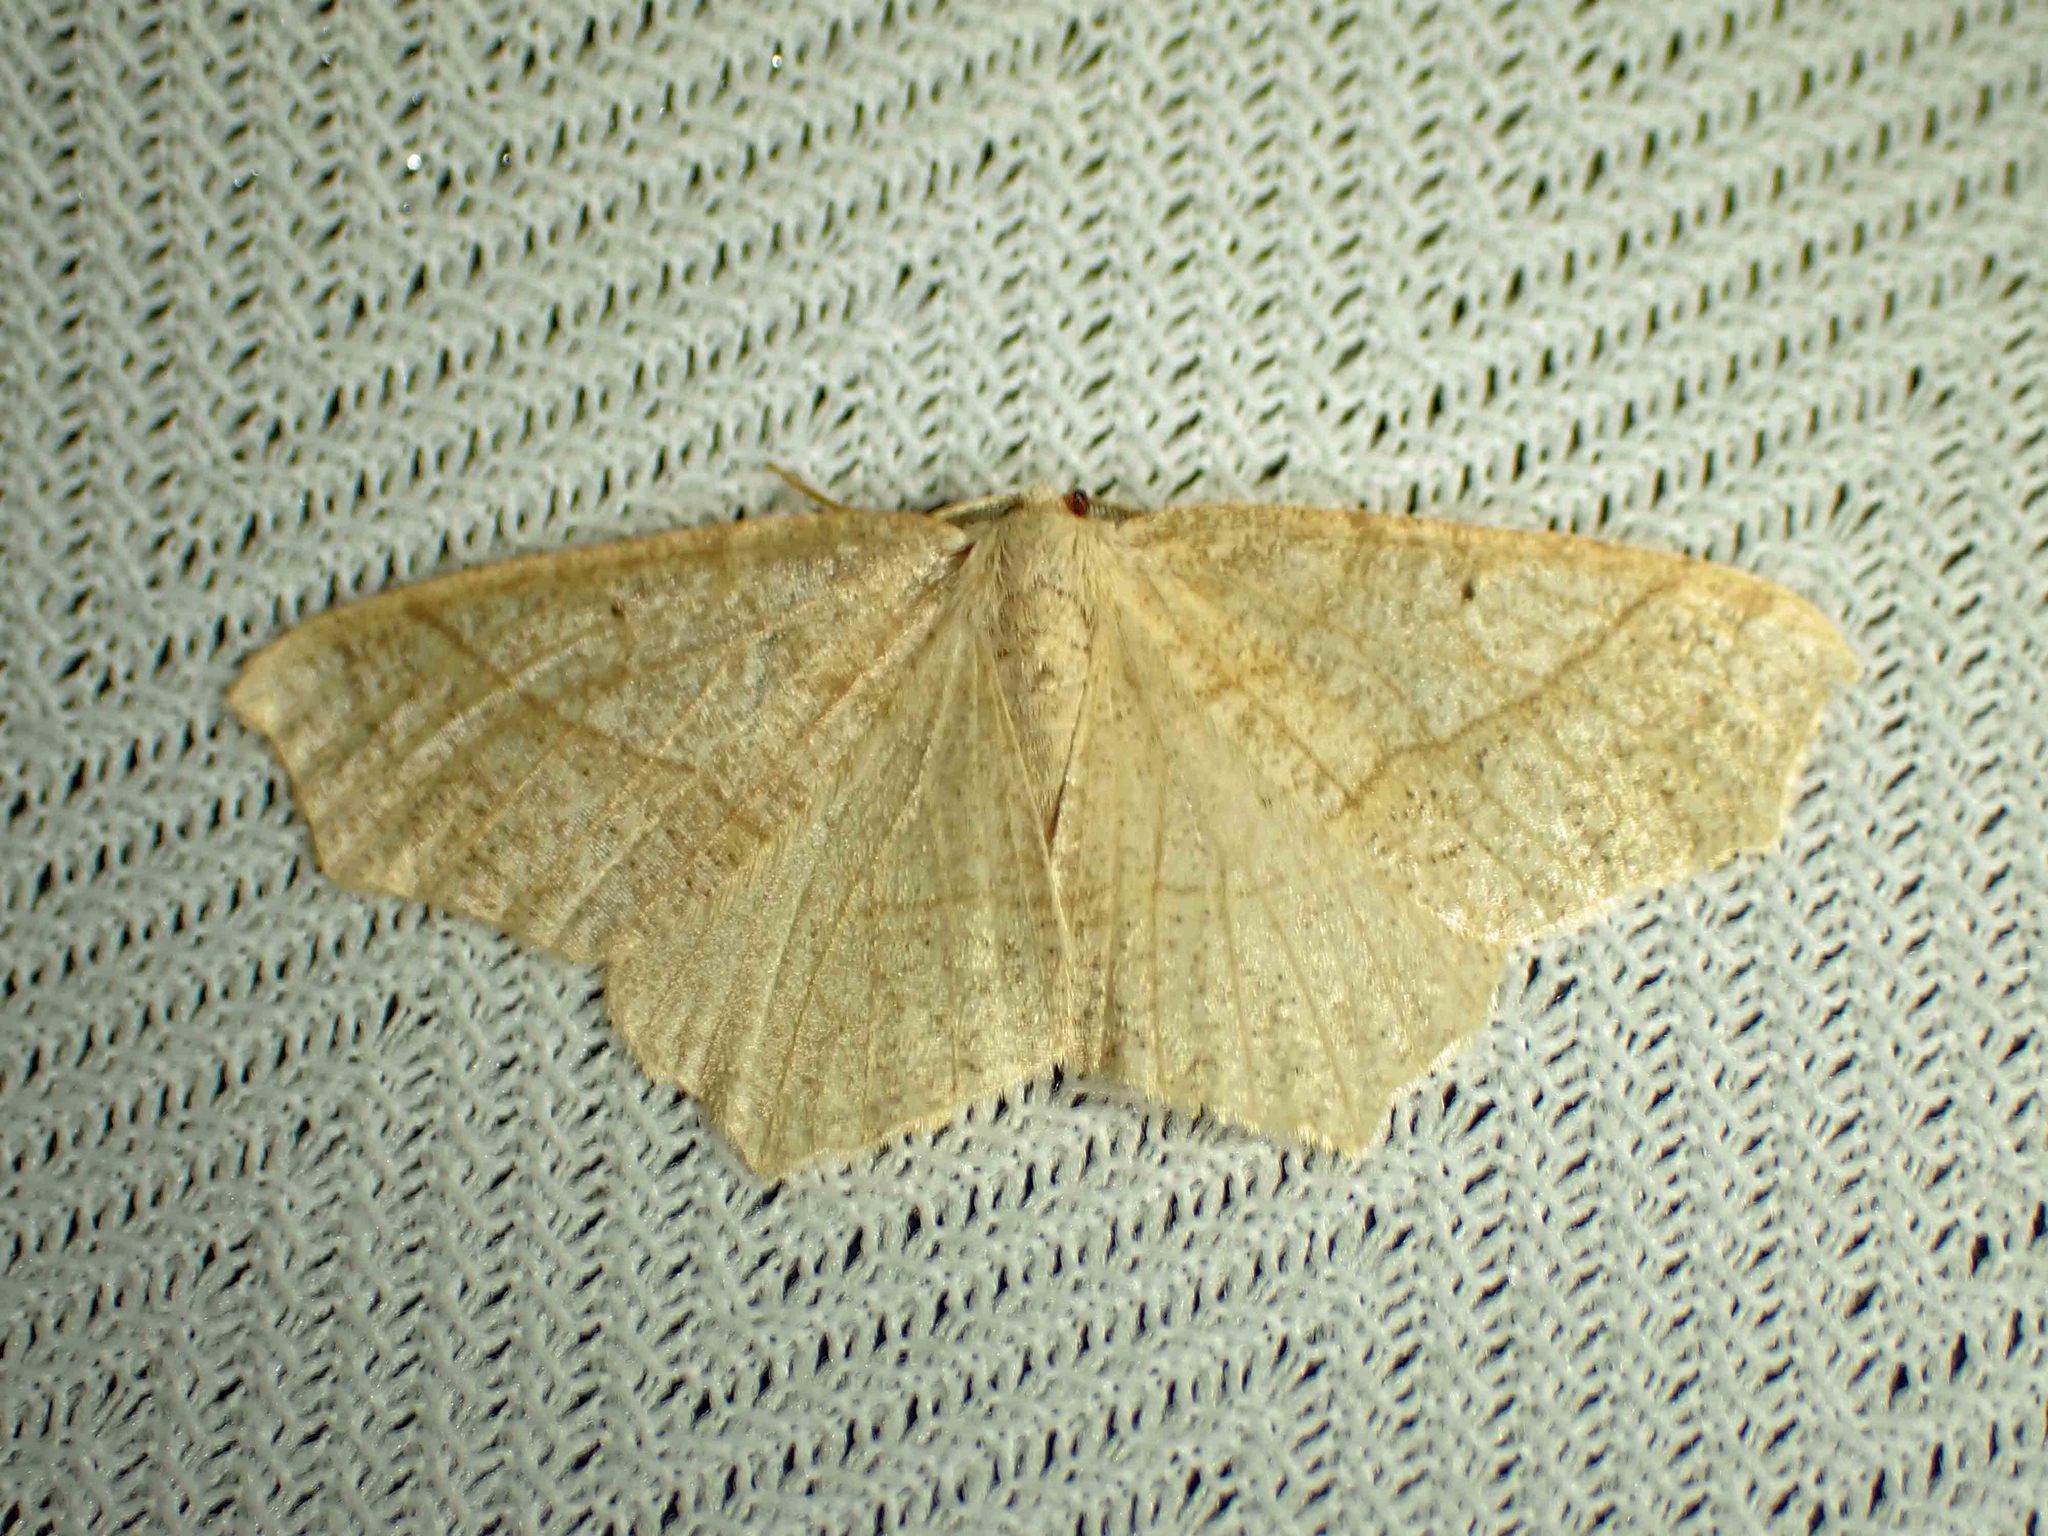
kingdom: Animalia
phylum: Arthropoda
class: Insecta
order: Lepidoptera
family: Geometridae
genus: Besma
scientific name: Besma quercivoraria
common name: Oak besma
